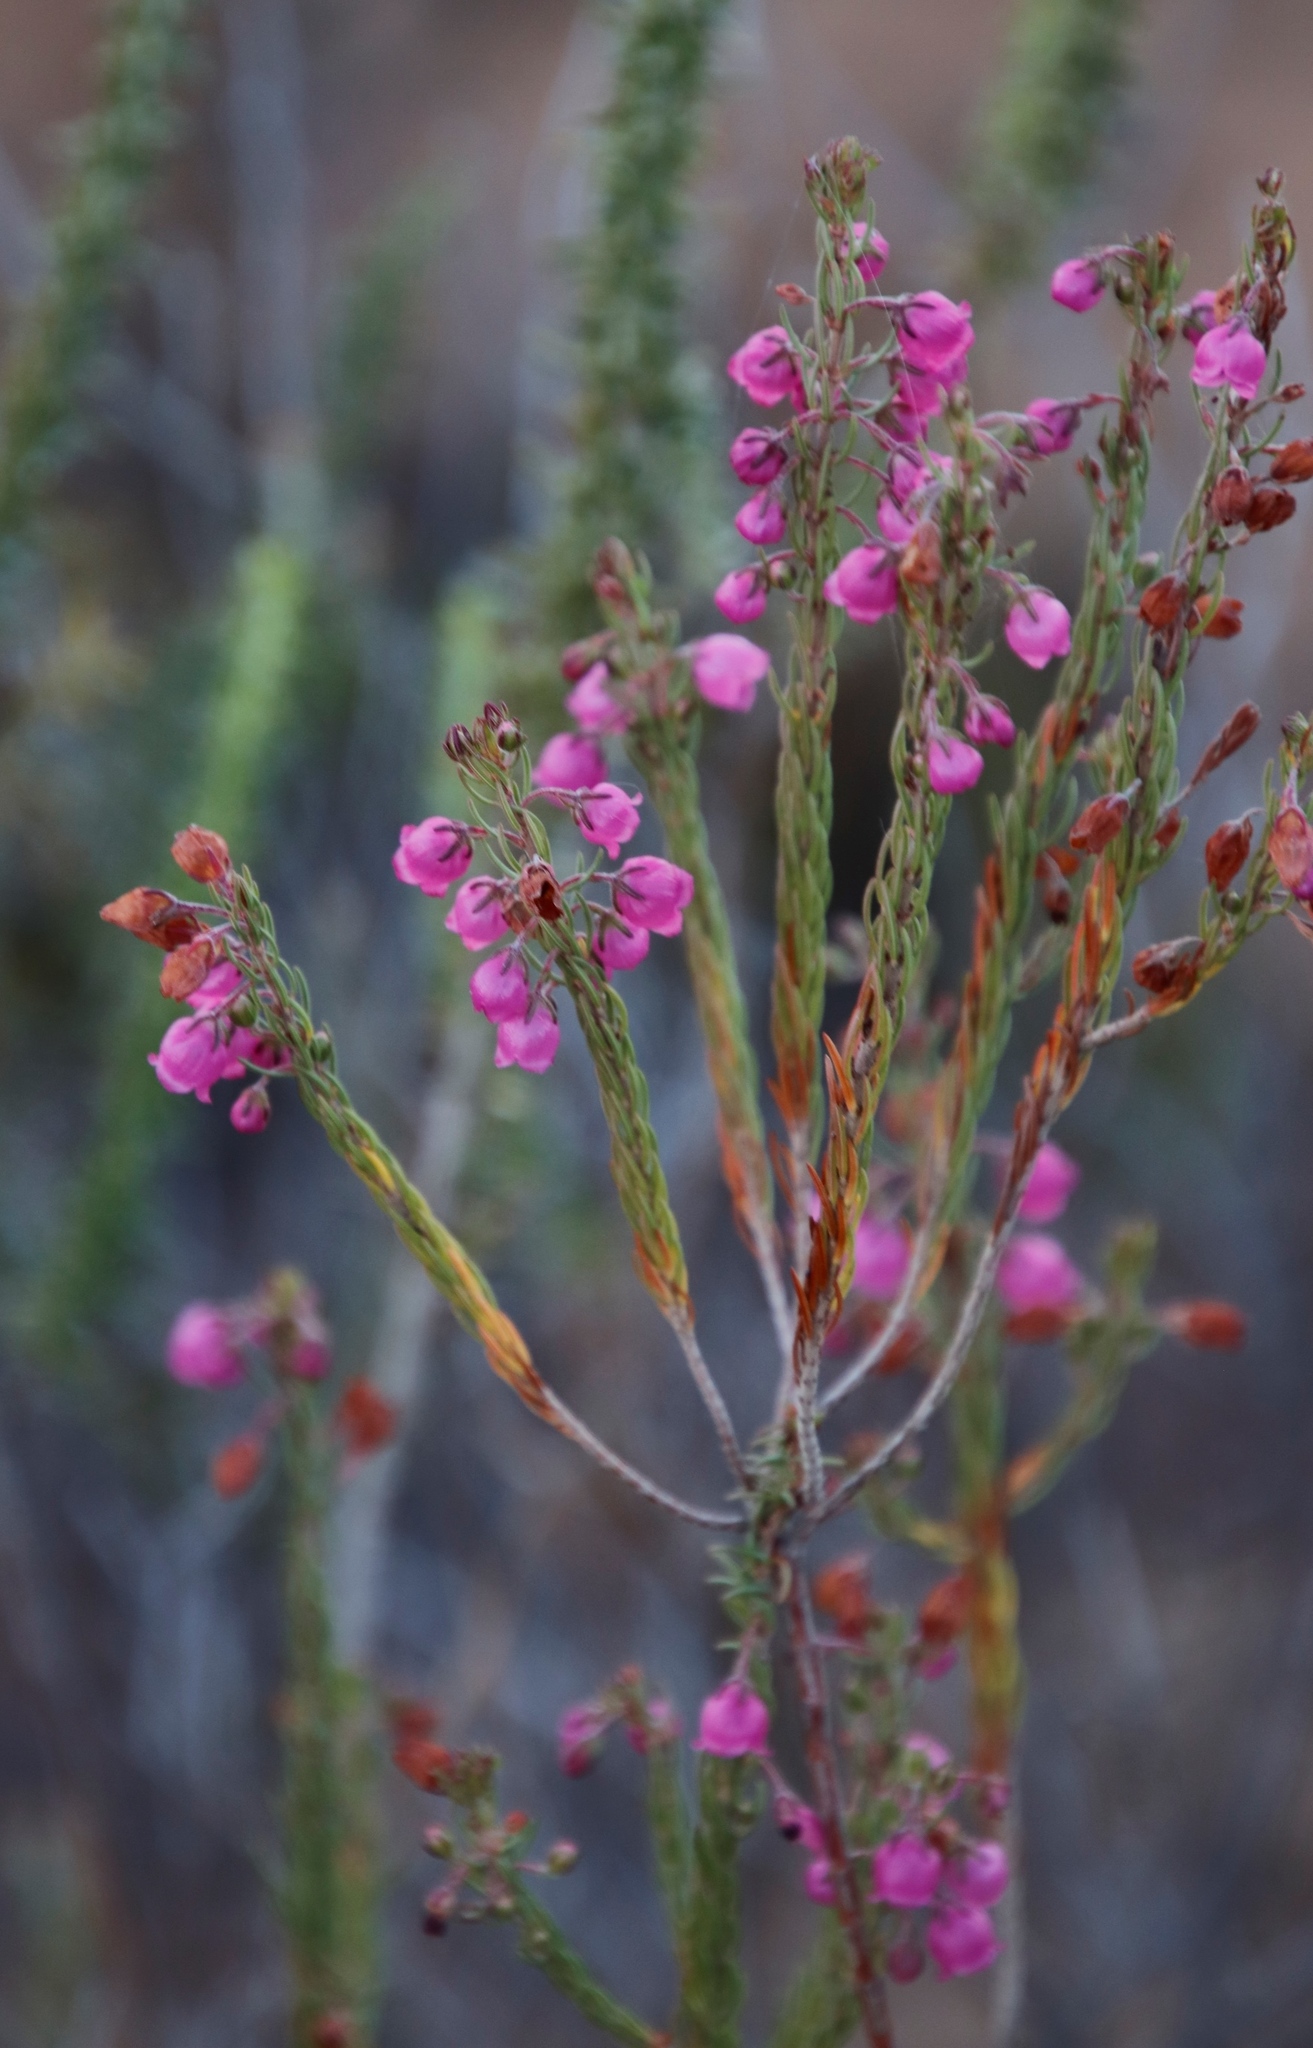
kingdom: Plantae
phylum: Tracheophyta
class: Magnoliopsida
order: Ericales
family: Ericaceae
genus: Erica
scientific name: Erica viscaria
